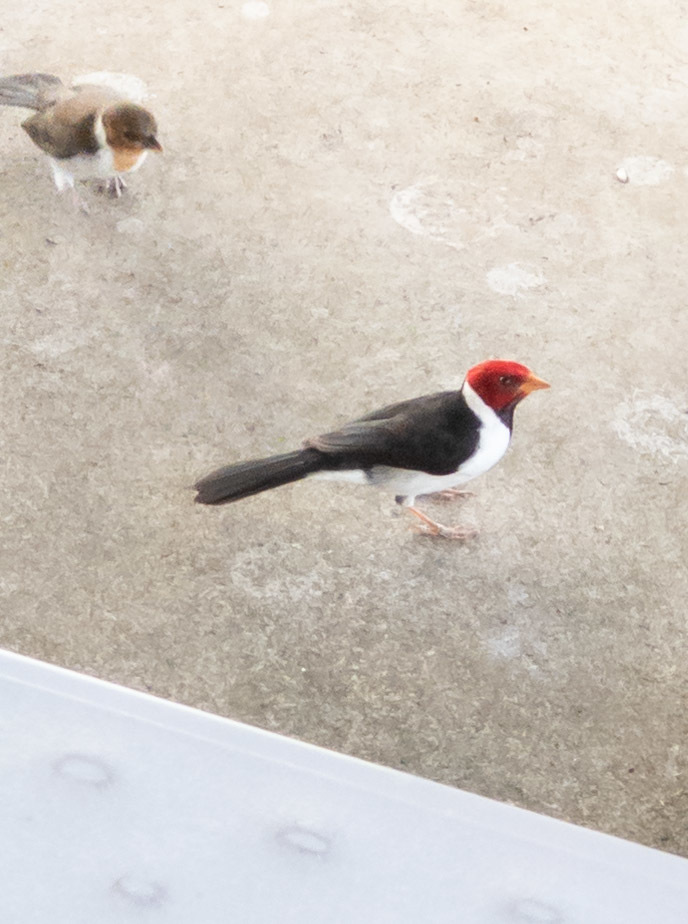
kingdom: Animalia
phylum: Chordata
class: Aves
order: Passeriformes
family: Thraupidae
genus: Paroaria
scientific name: Paroaria capitata
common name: Yellow-billed cardinal
